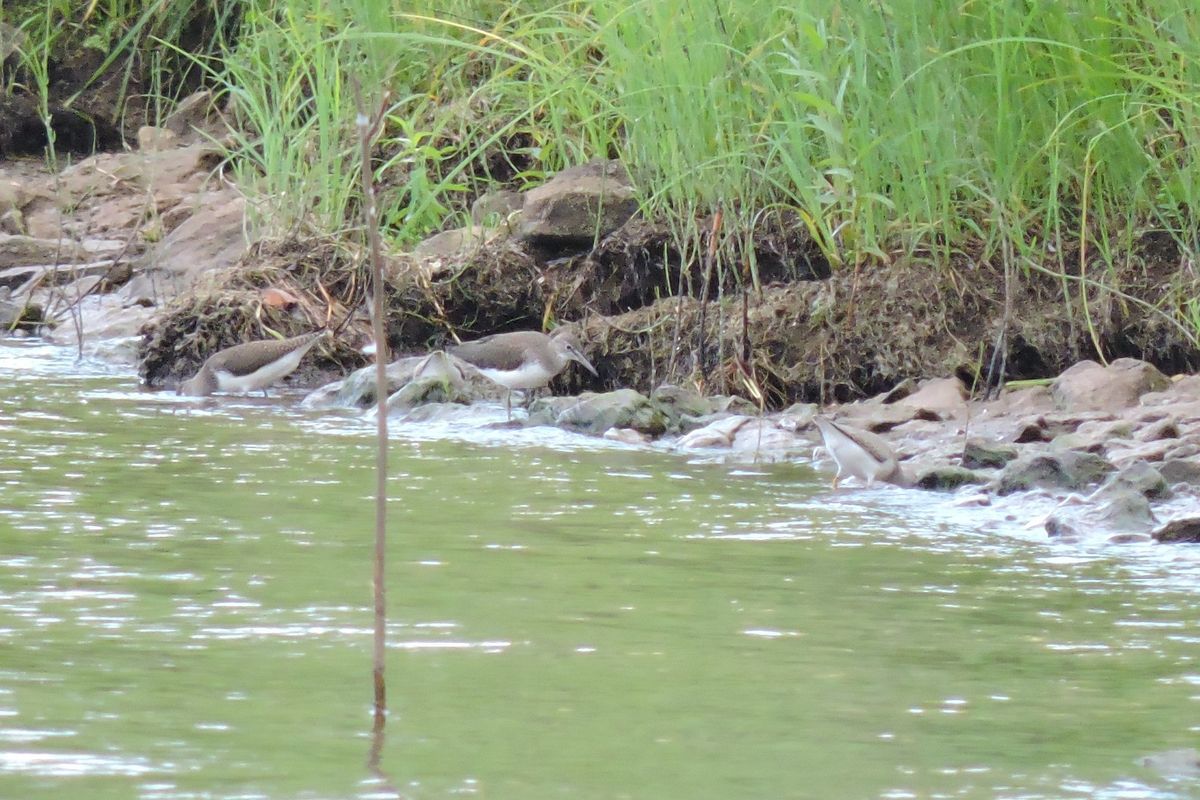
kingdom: Animalia
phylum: Chordata
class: Aves
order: Charadriiformes
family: Scolopacidae
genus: Tringa
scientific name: Tringa ochropus
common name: Green sandpiper
